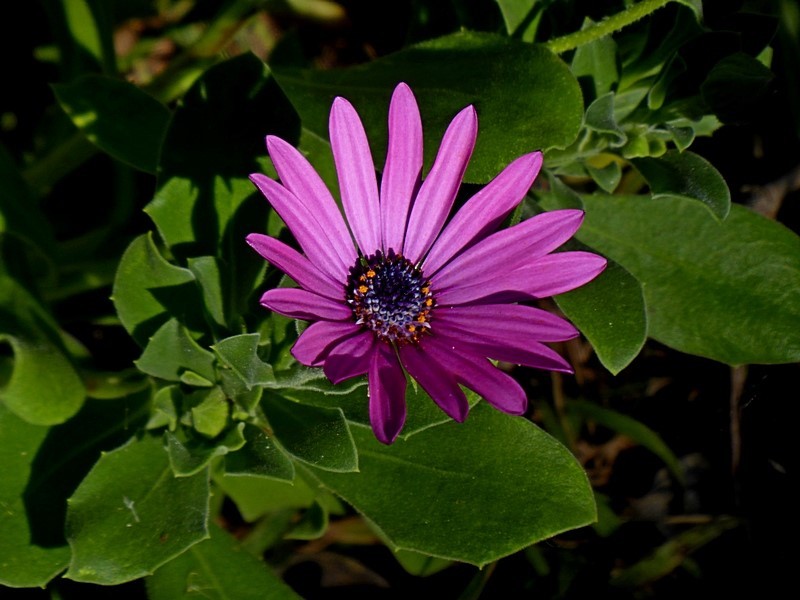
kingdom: Plantae
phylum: Tracheophyta
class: Magnoliopsida
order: Asterales
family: Asteraceae
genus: Dimorphotheca
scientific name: Dimorphotheca ecklonis
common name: Vanstaden's river daisy
